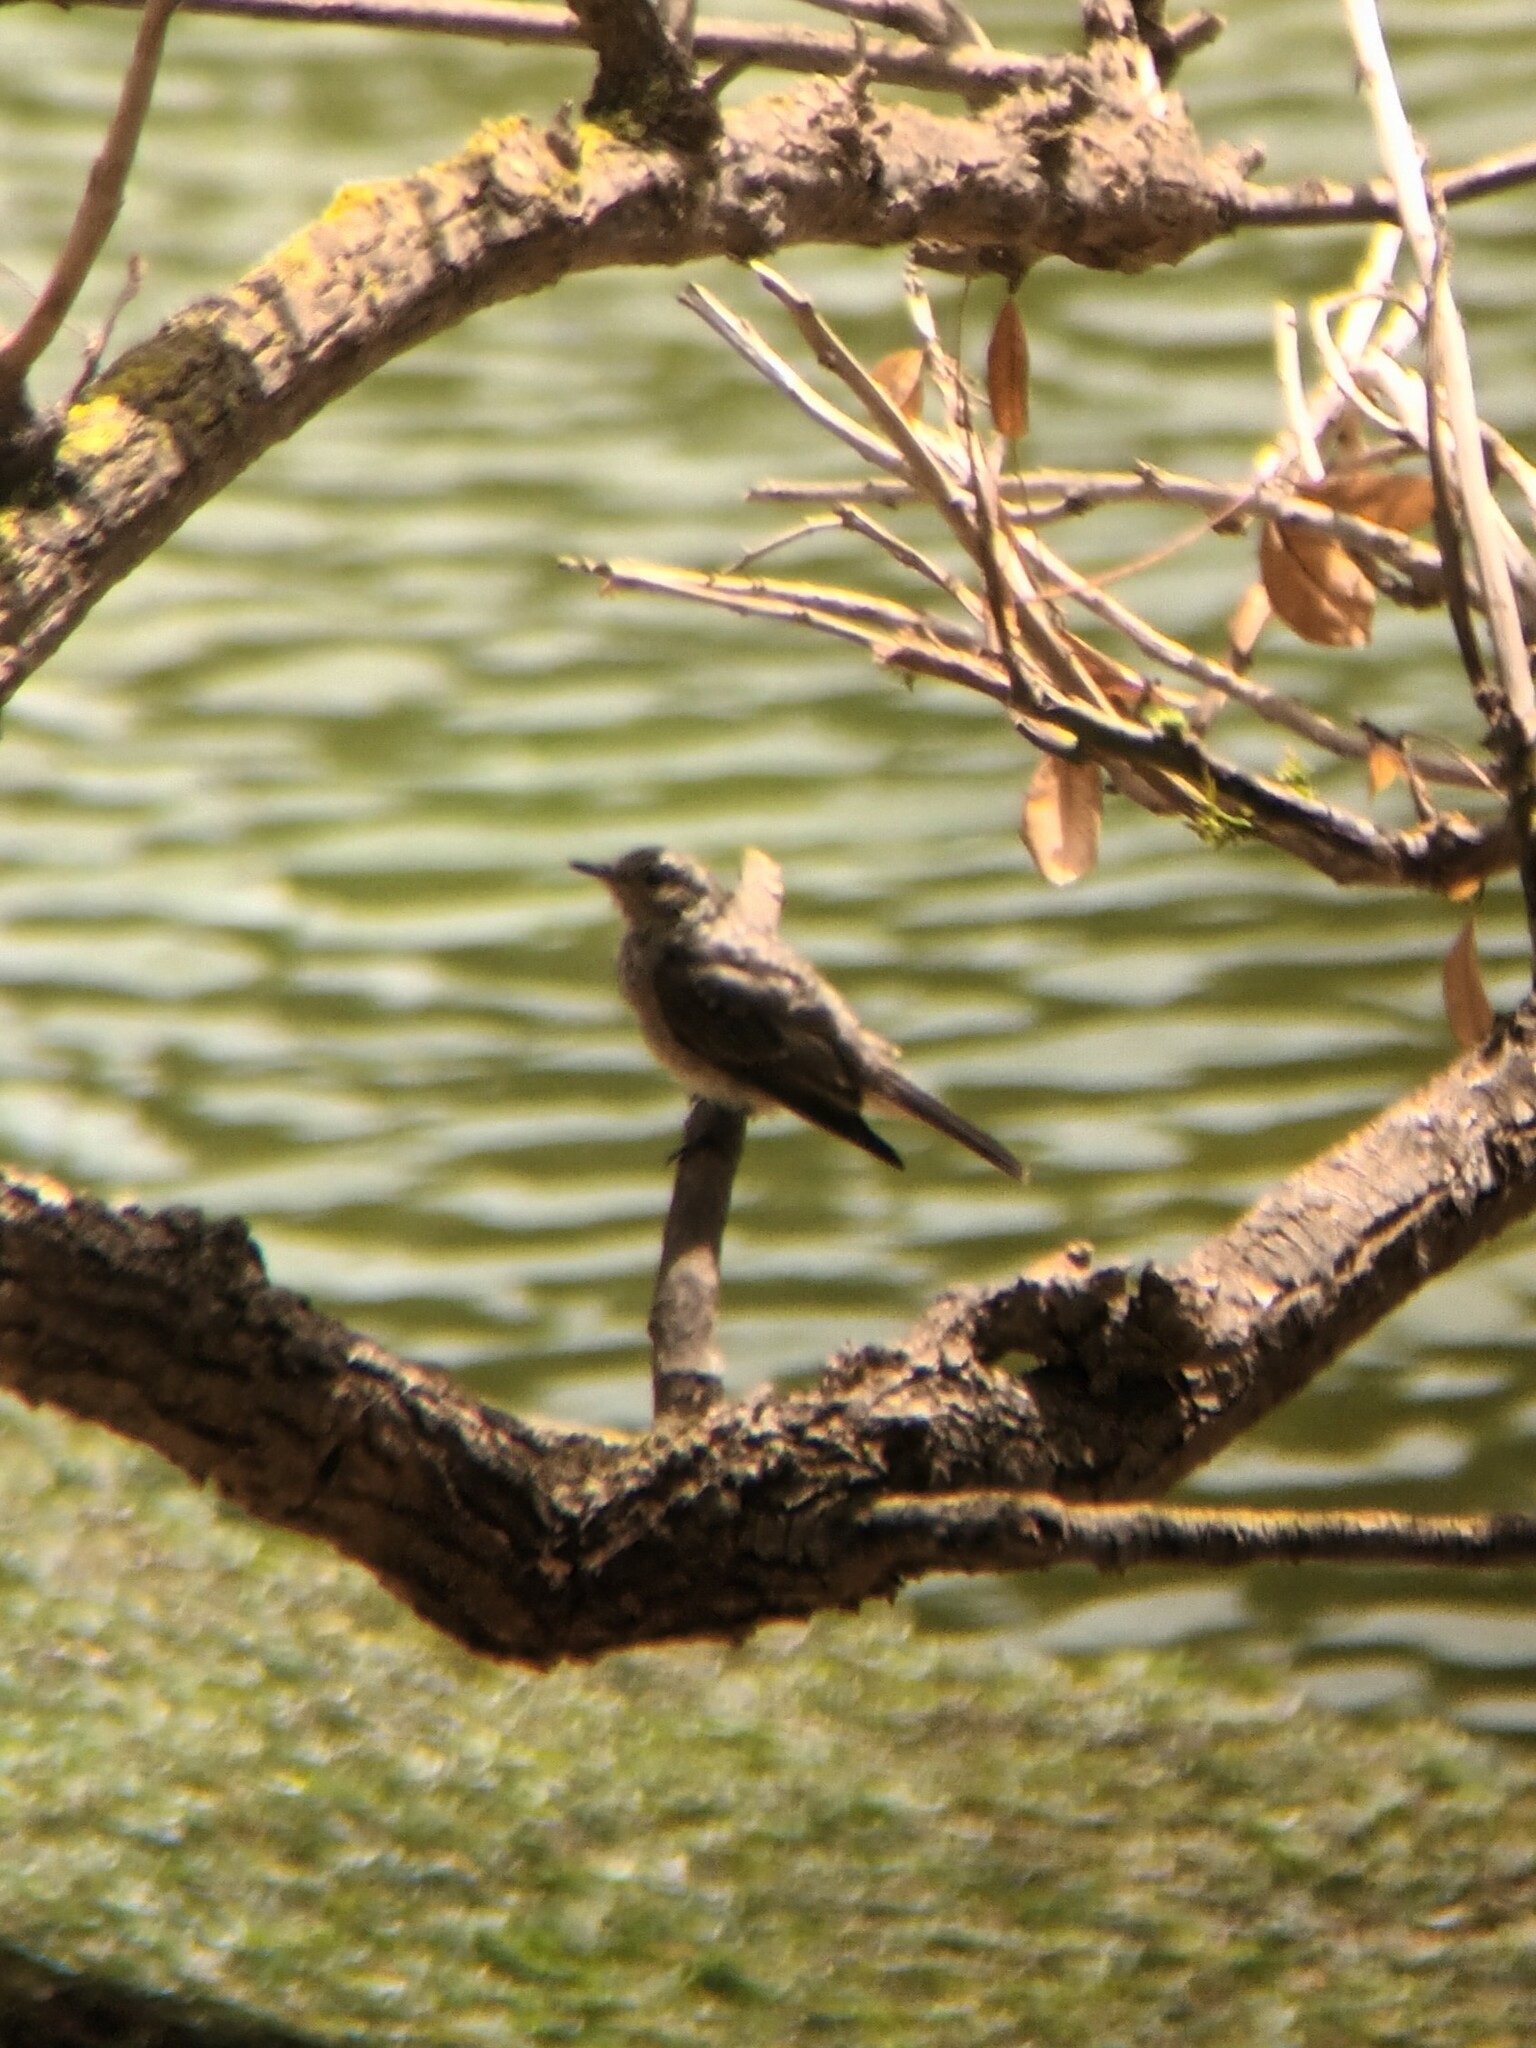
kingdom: Animalia
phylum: Chordata
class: Aves
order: Passeriformes
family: Muscicapidae
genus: Muscicapa
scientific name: Muscicapa striata
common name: Spotted flycatcher
